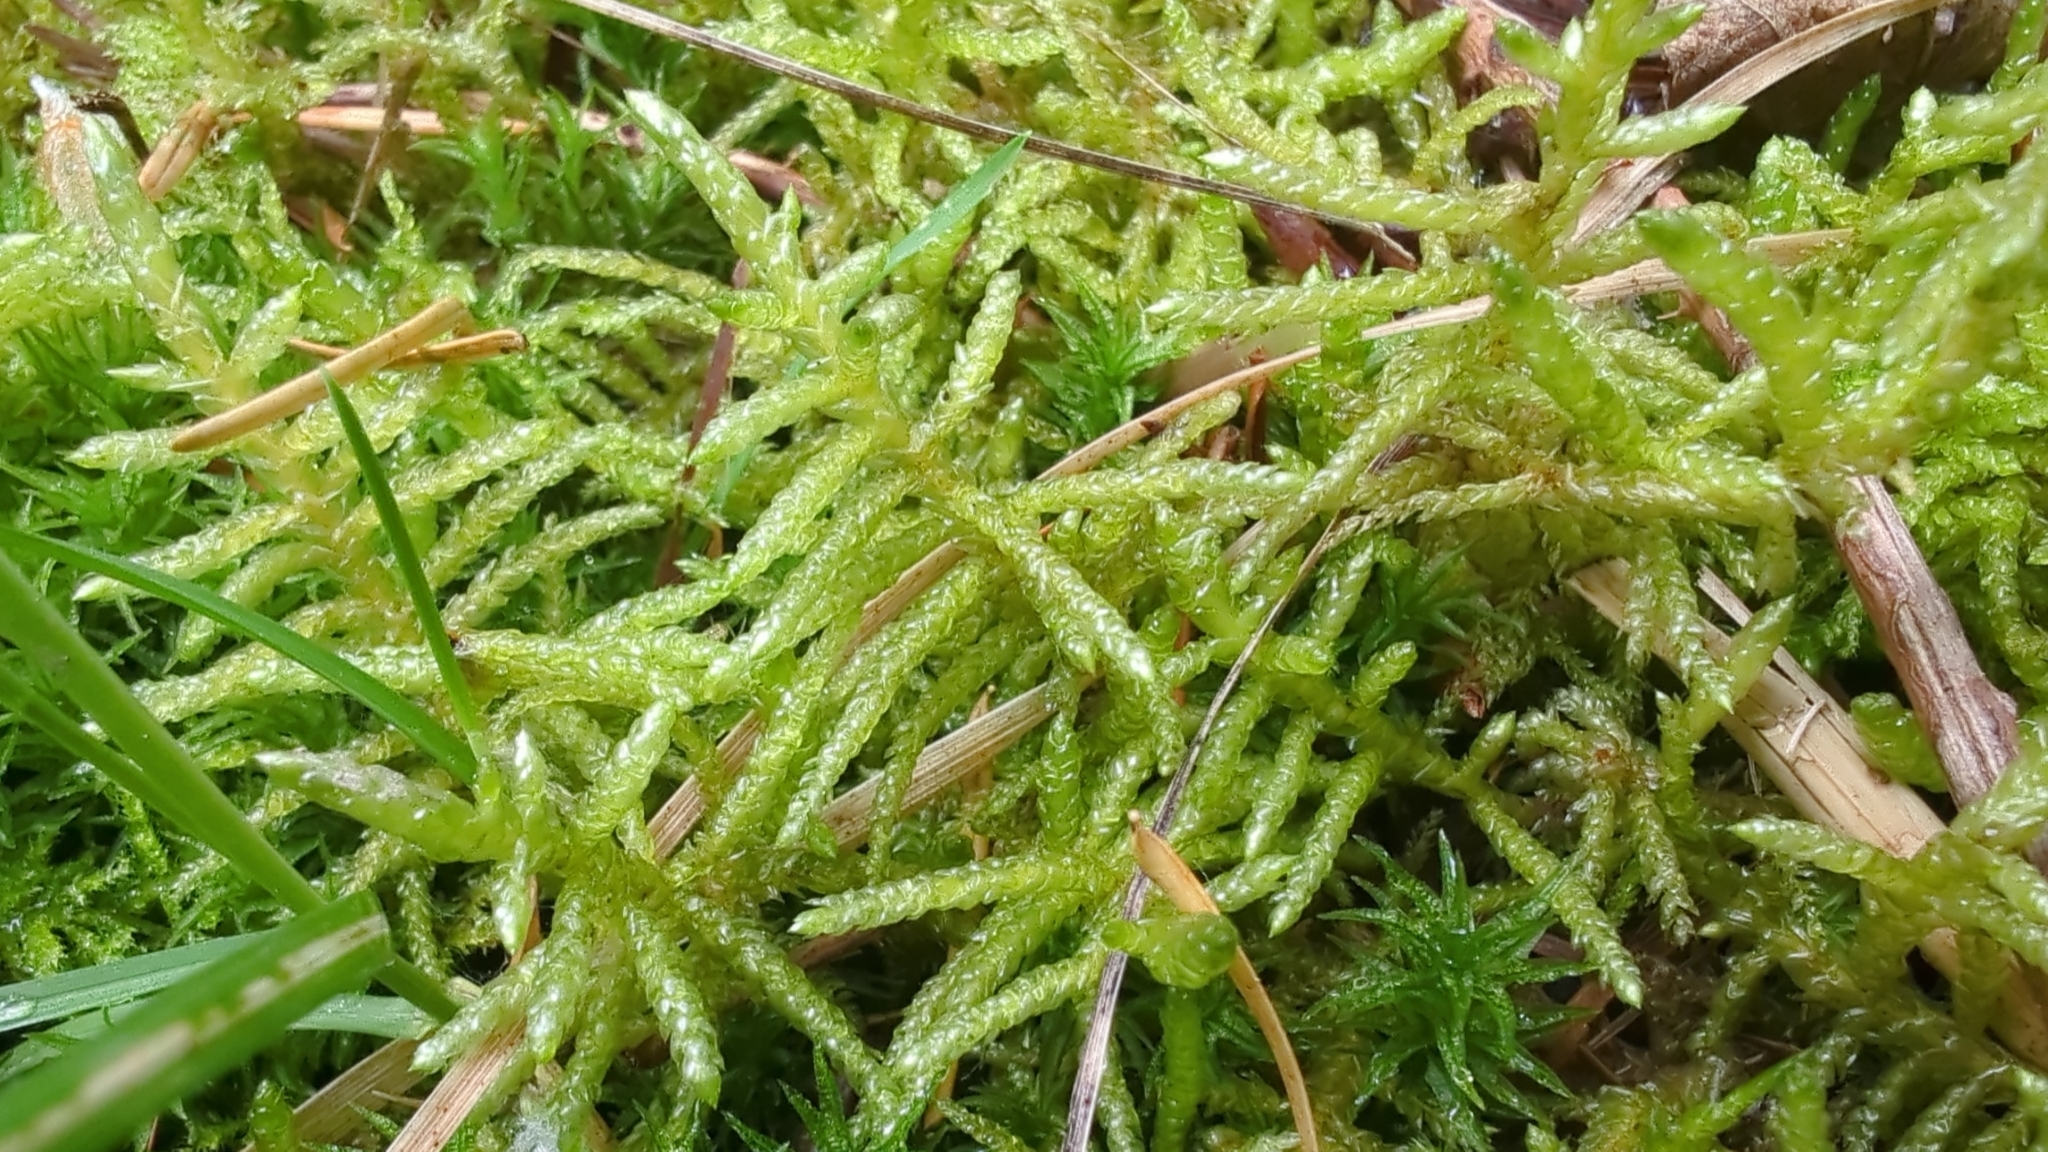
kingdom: Plantae
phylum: Bryophyta
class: Bryopsida
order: Hypnales
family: Brachytheciaceae
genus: Pseudoscleropodium
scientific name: Pseudoscleropodium purum
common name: Neat feather-moss
